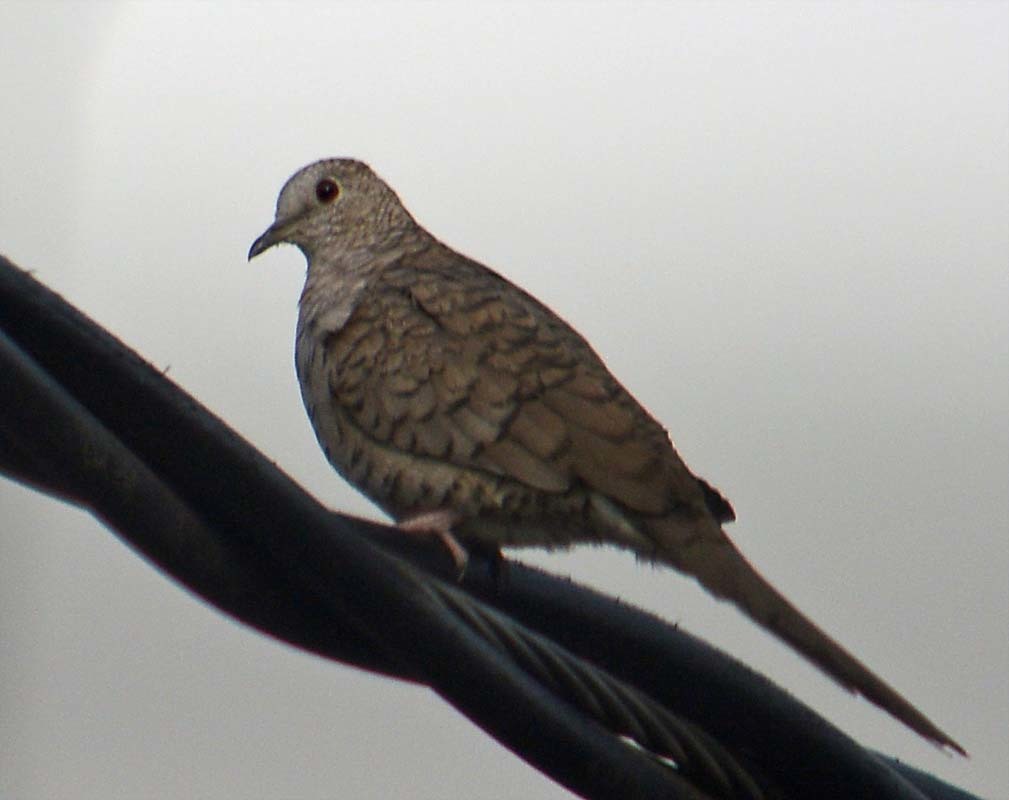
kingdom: Animalia
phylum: Chordata
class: Aves
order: Columbiformes
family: Columbidae
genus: Columbina
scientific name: Columbina inca
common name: Inca dove
